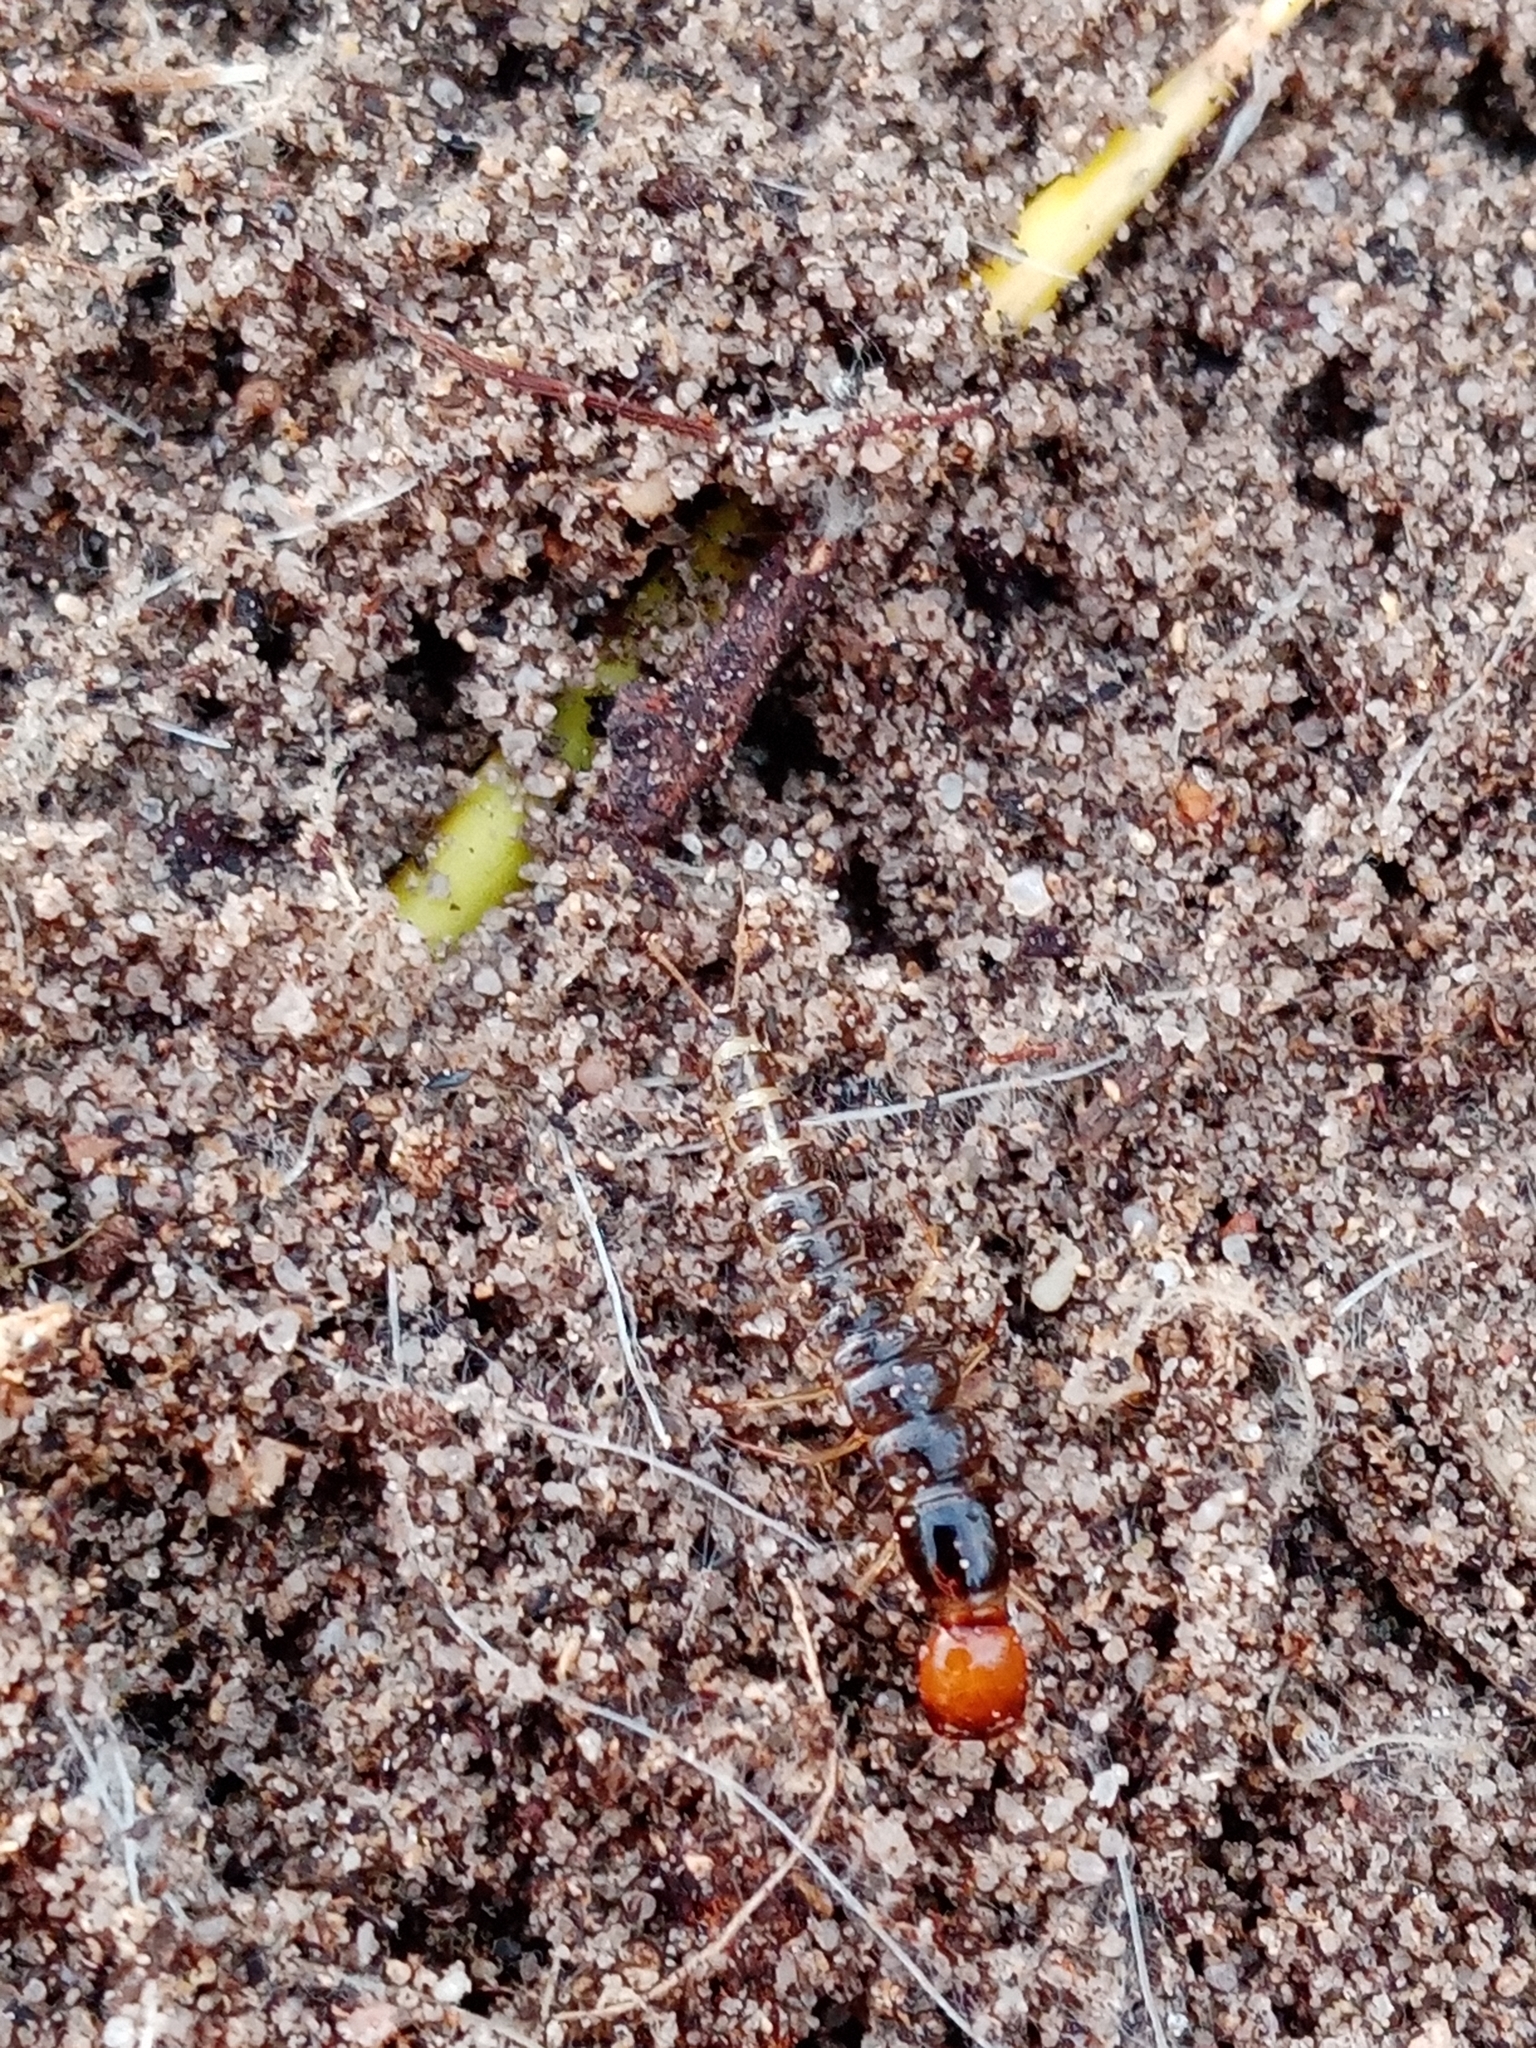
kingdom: Animalia
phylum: Arthropoda
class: Insecta
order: Coleoptera
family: Staphyliniae
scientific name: Staphyliniae
